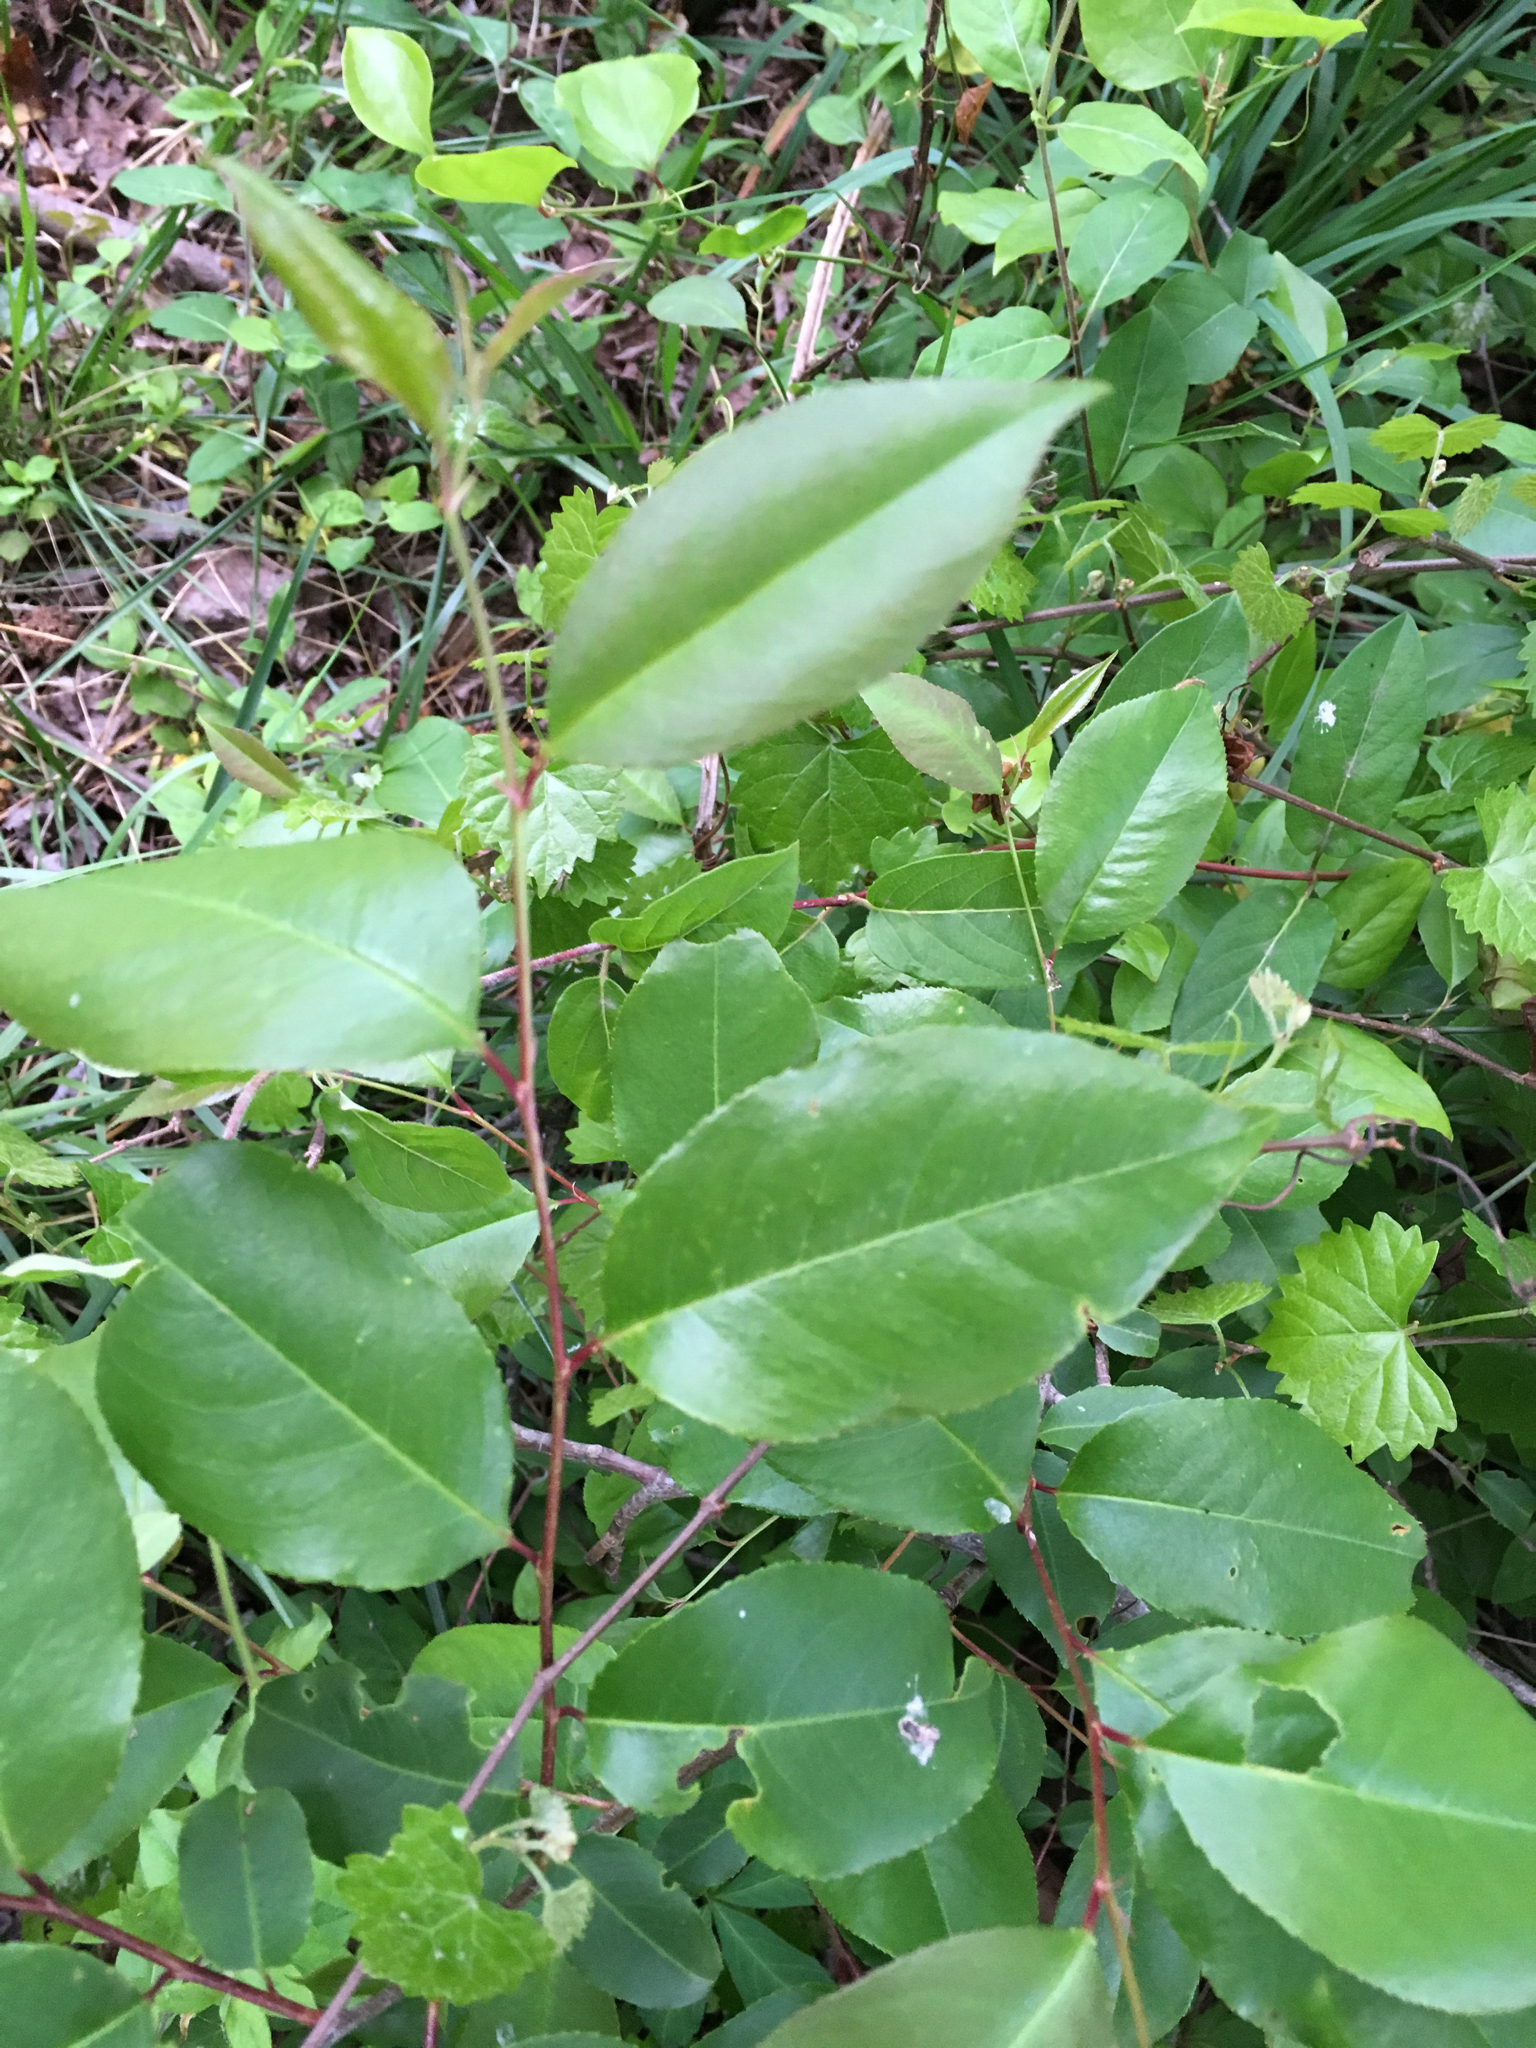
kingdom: Plantae
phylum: Tracheophyta
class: Magnoliopsida
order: Rosales
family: Rosaceae
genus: Prunus
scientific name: Prunus serotina
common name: Black cherry
